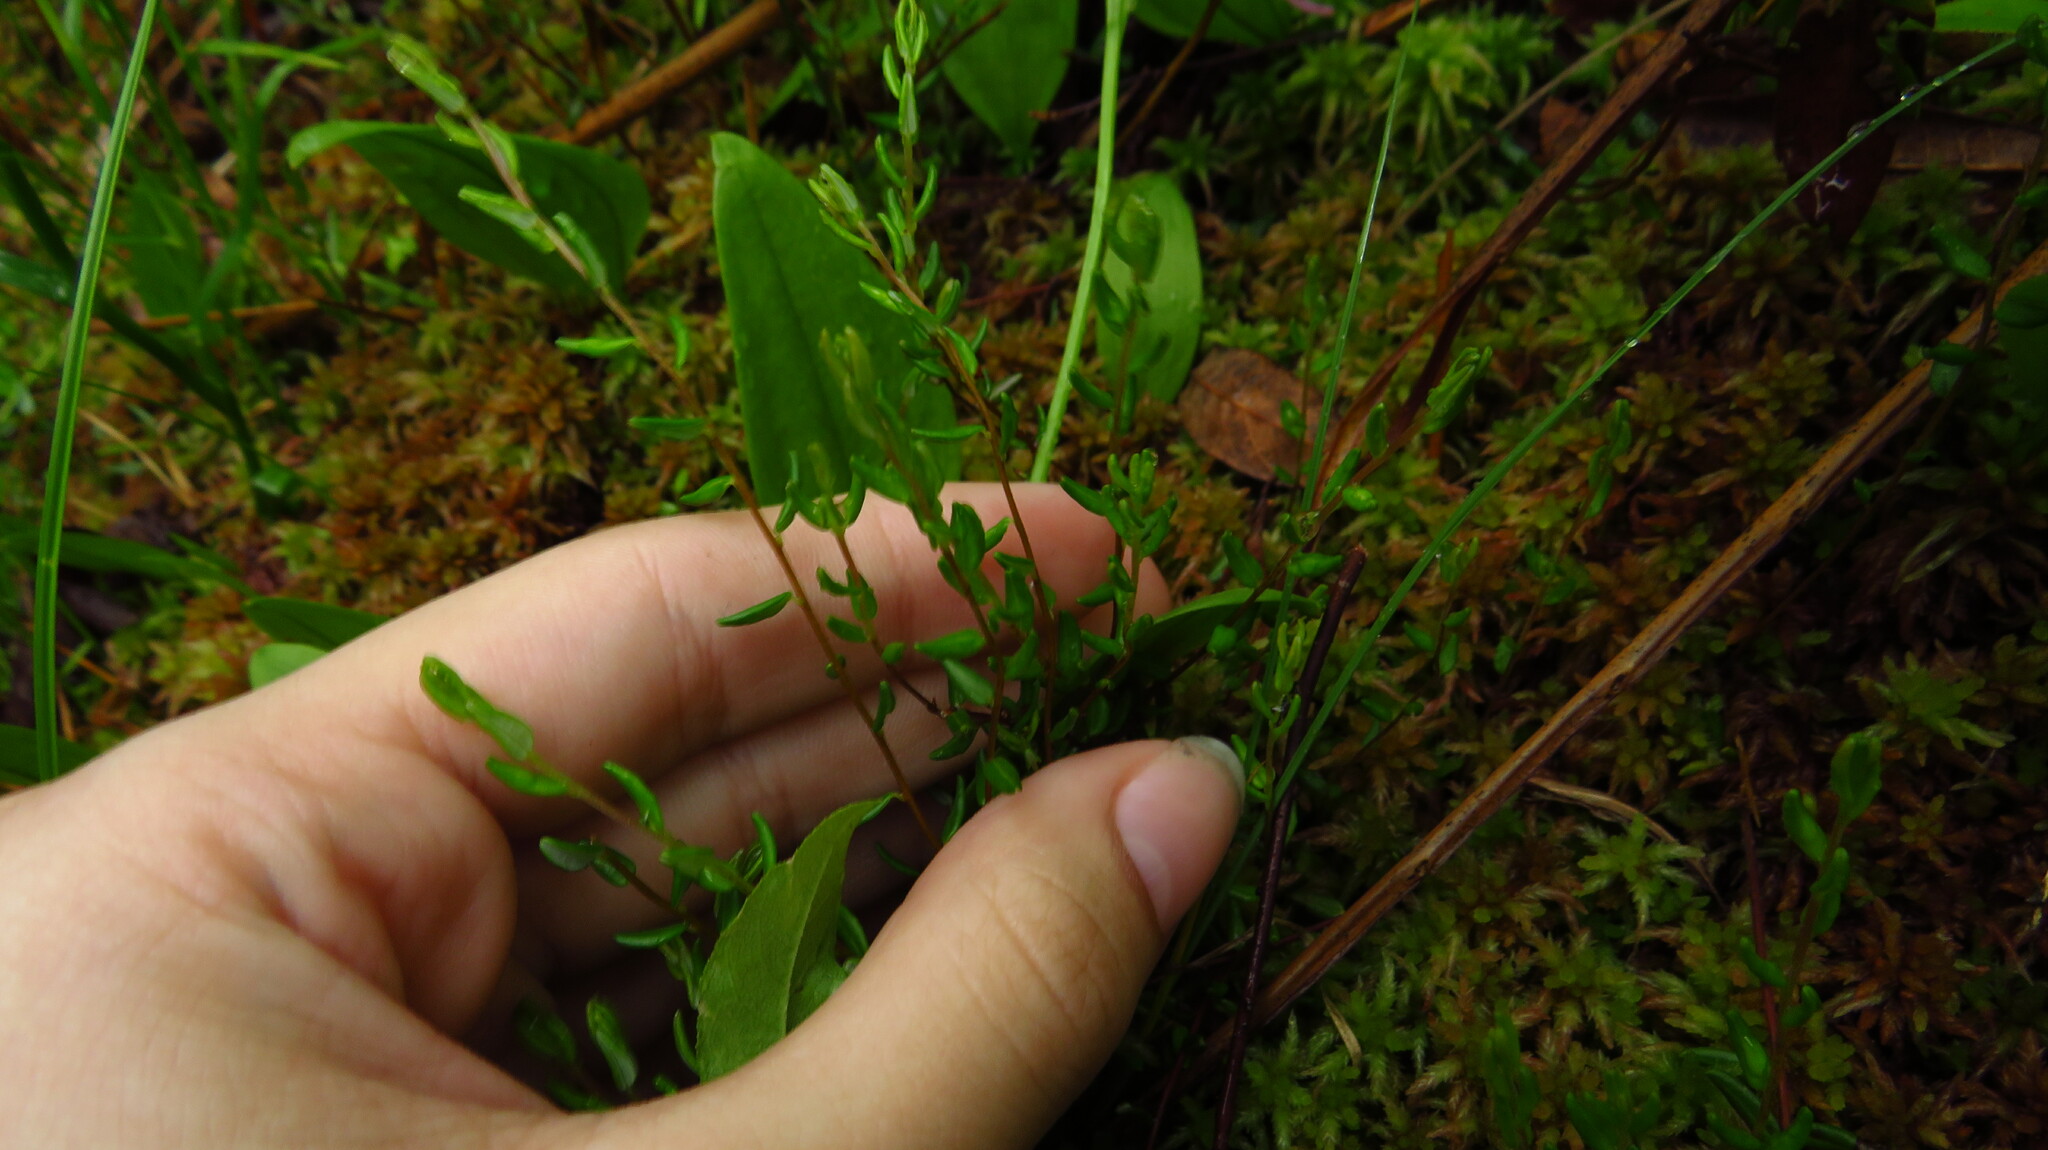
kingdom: Plantae
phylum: Tracheophyta
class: Magnoliopsida
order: Ericales
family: Ericaceae
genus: Vaccinium
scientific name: Vaccinium oxycoccos
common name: Cranberry
